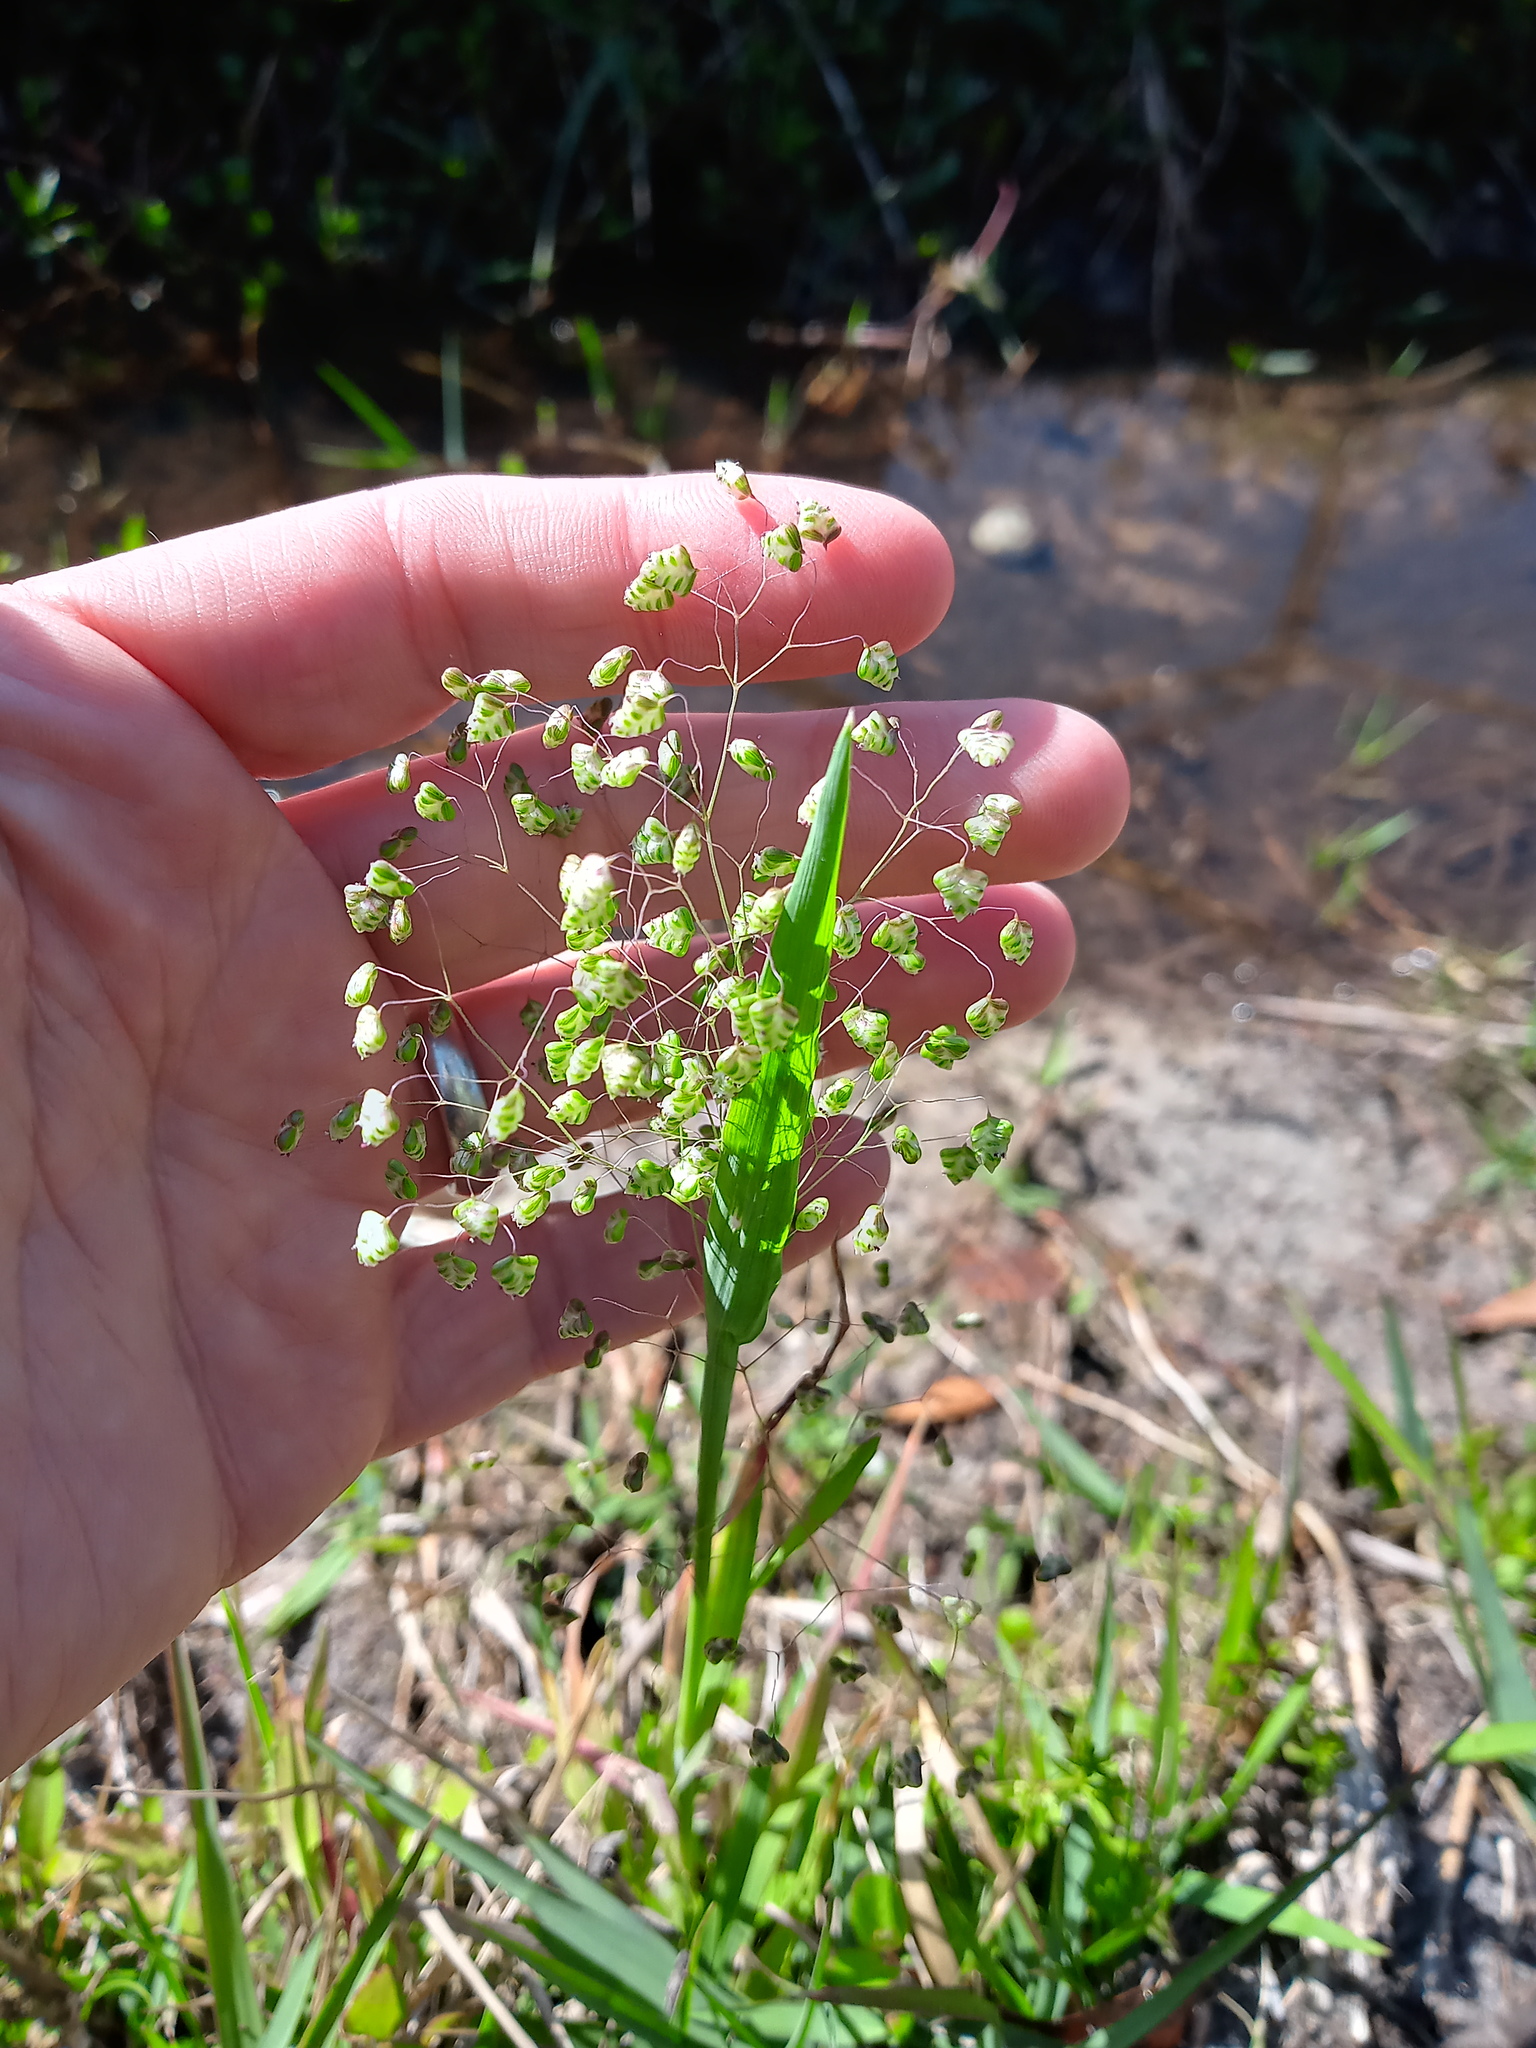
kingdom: Plantae
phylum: Tracheophyta
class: Liliopsida
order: Poales
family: Poaceae
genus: Briza
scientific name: Briza minor
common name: Lesser quaking-grass
